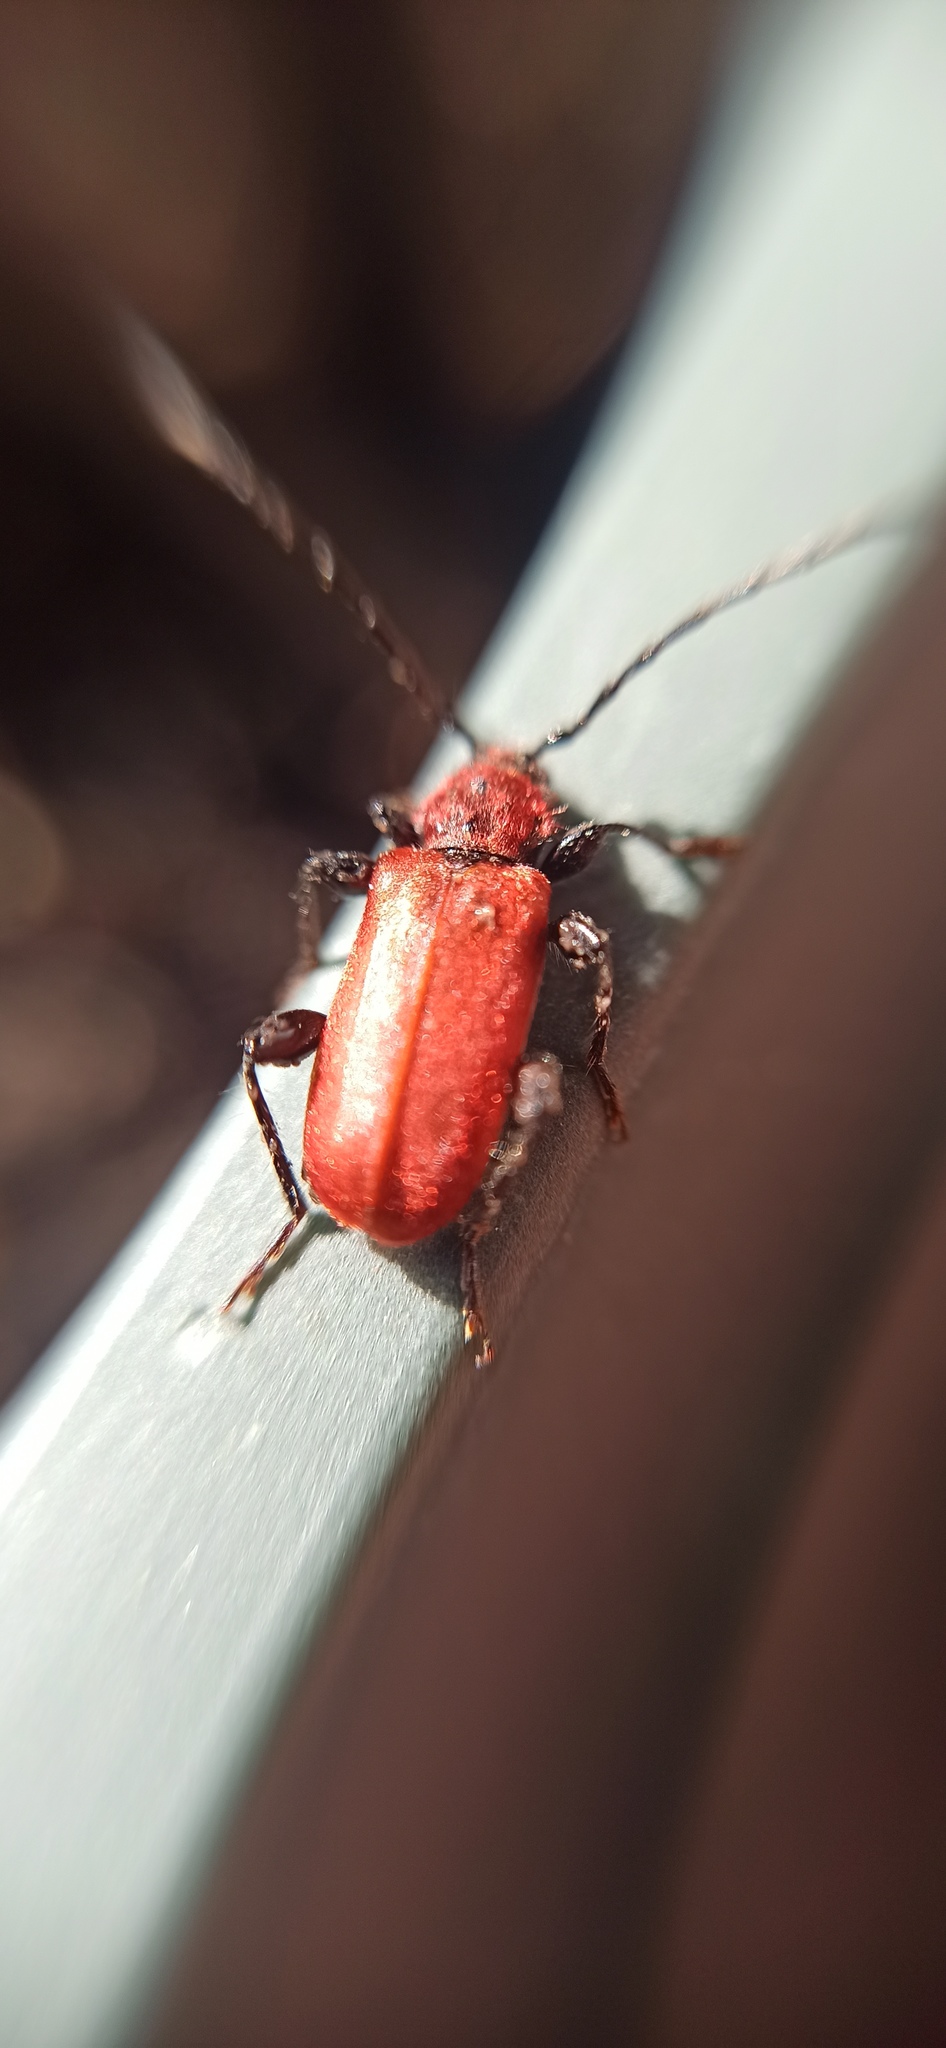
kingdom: Animalia
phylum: Arthropoda
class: Insecta
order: Coleoptera
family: Cerambycidae
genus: Pyrrhidium
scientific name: Pyrrhidium sanguineum
